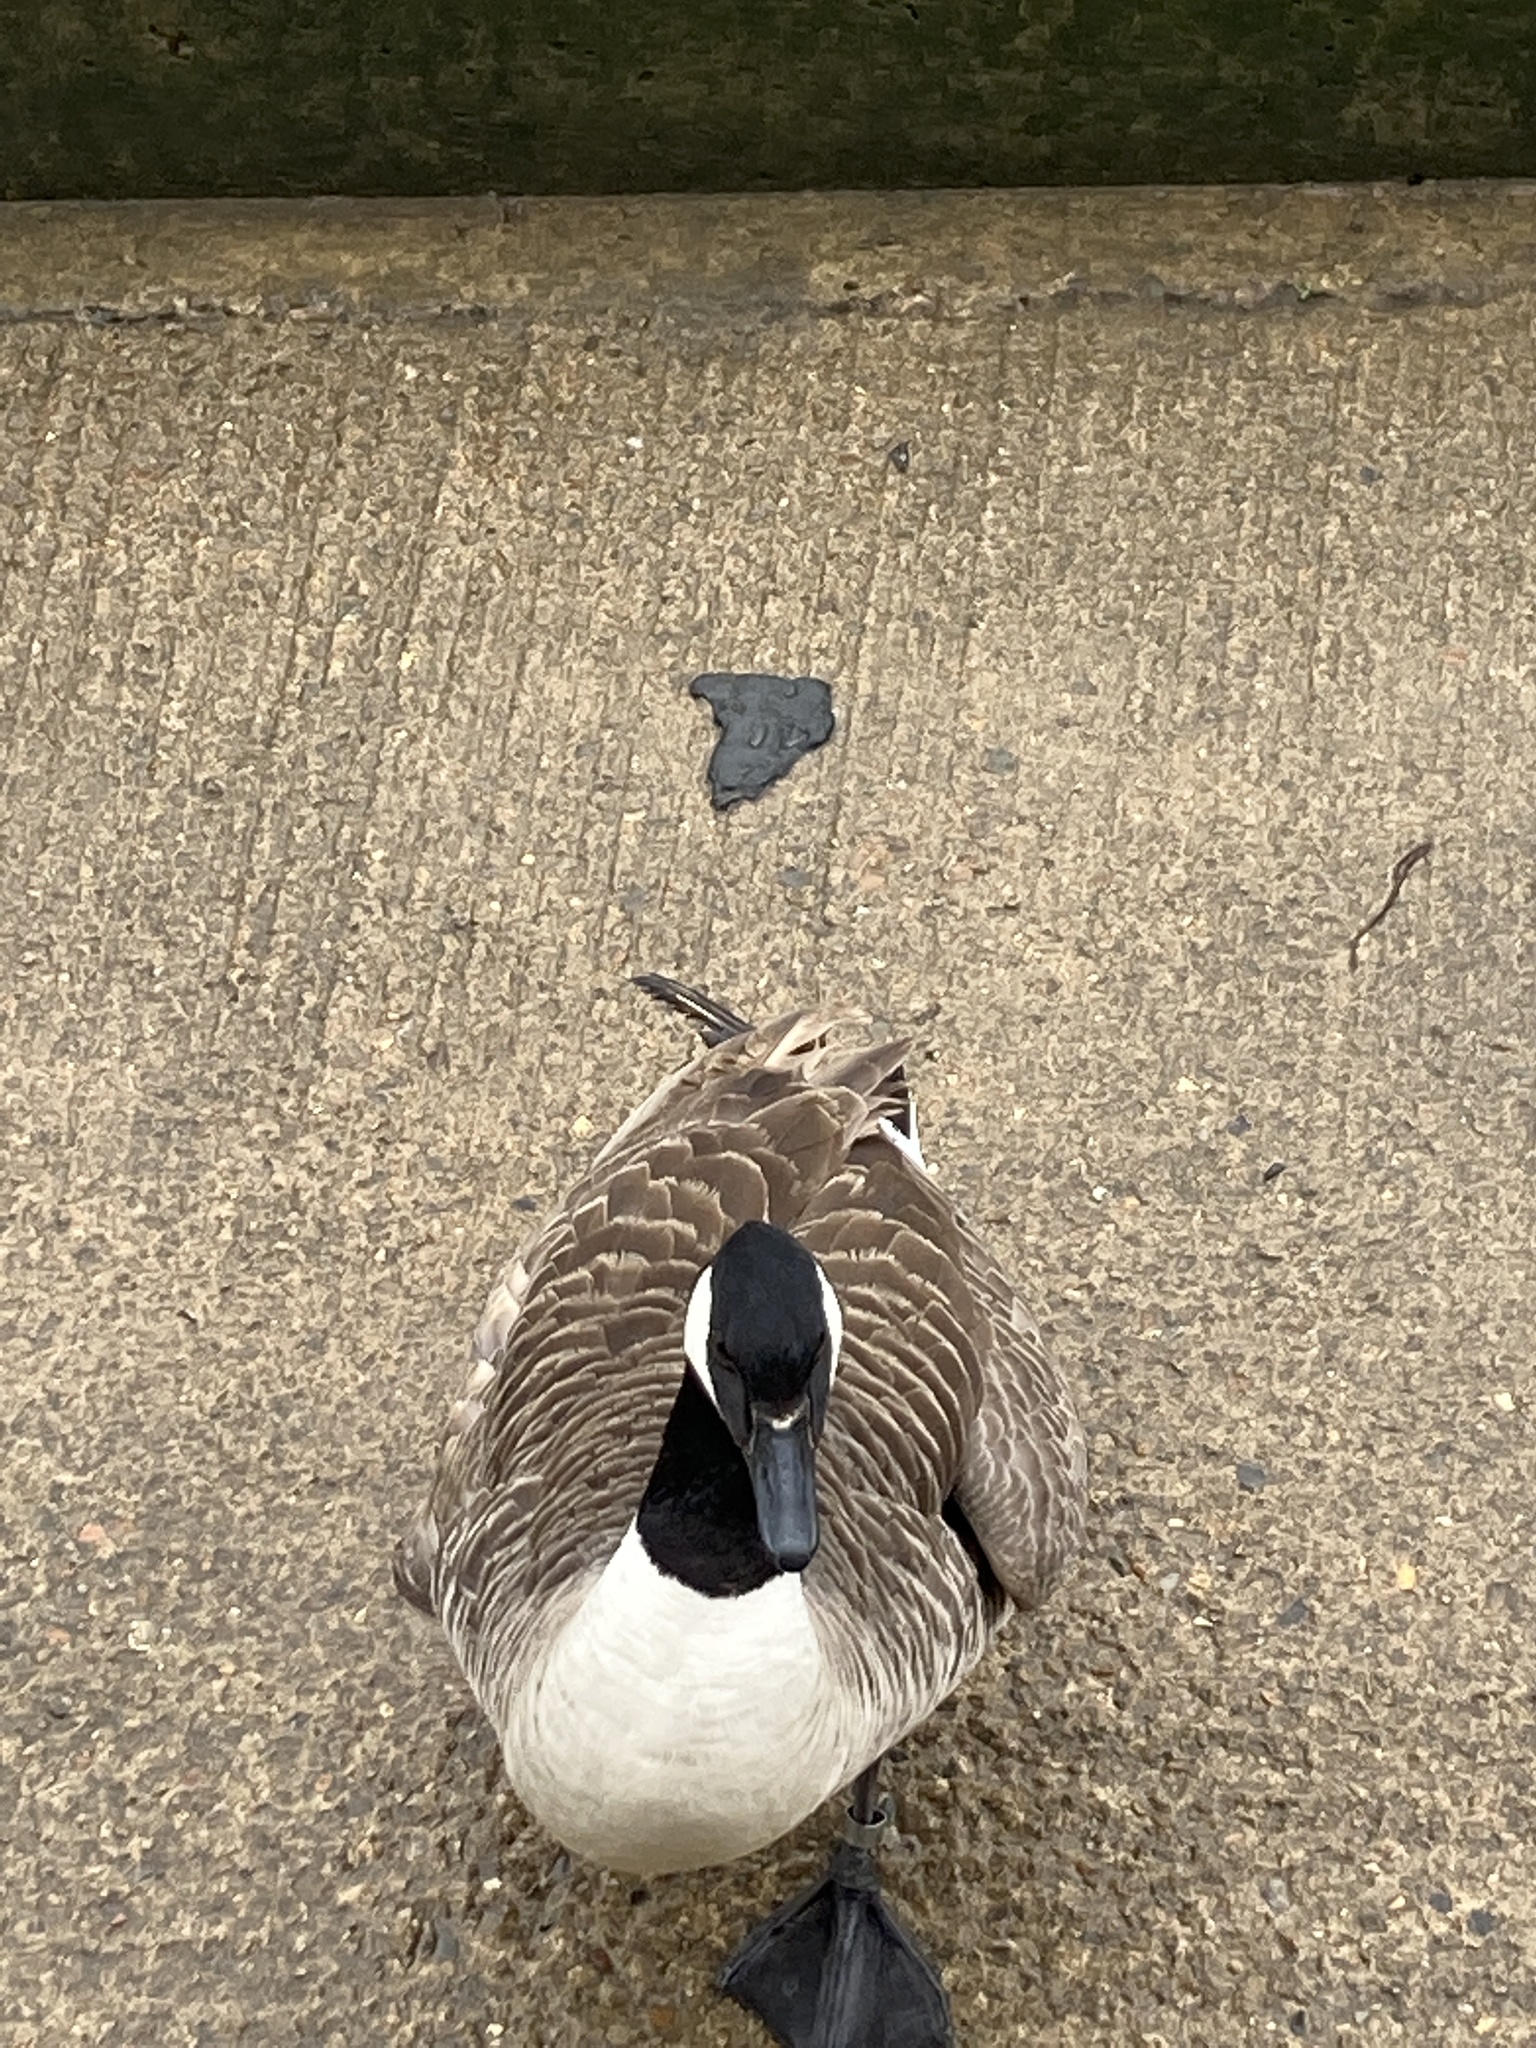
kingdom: Animalia
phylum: Chordata
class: Aves
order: Anseriformes
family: Anatidae
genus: Branta
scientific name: Branta canadensis
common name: Canada goose
